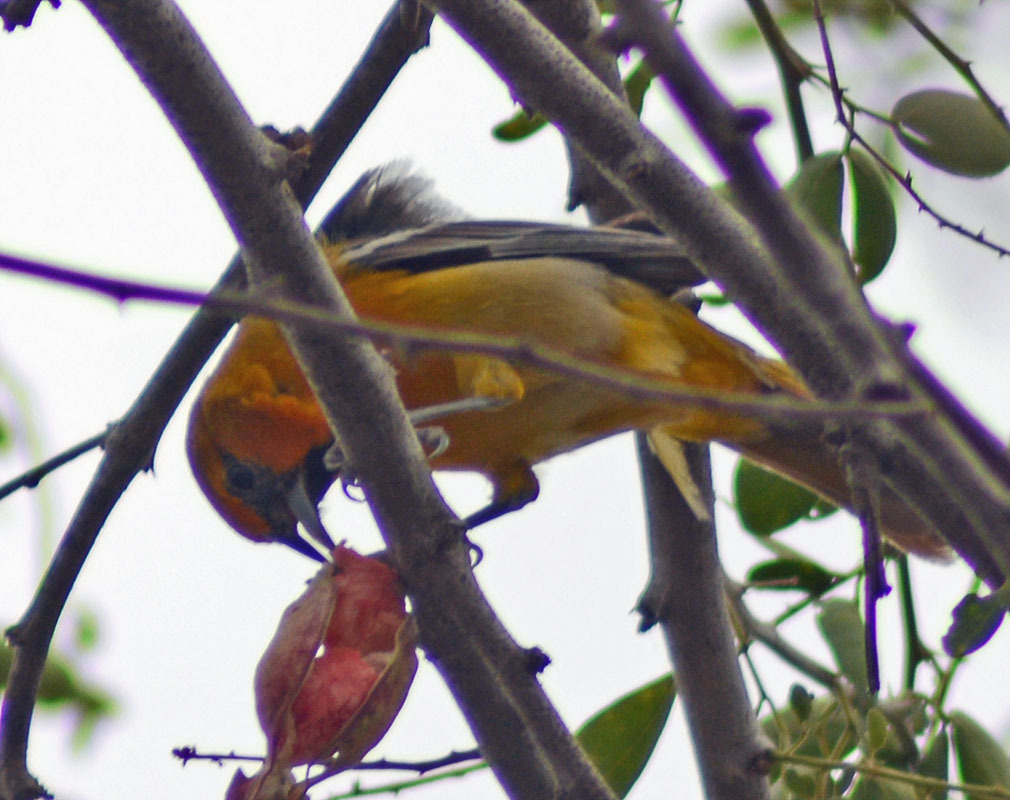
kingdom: Animalia
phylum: Chordata
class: Aves
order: Passeriformes
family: Icteridae
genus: Icterus
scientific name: Icterus pustulatus
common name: Streak-backed oriole
